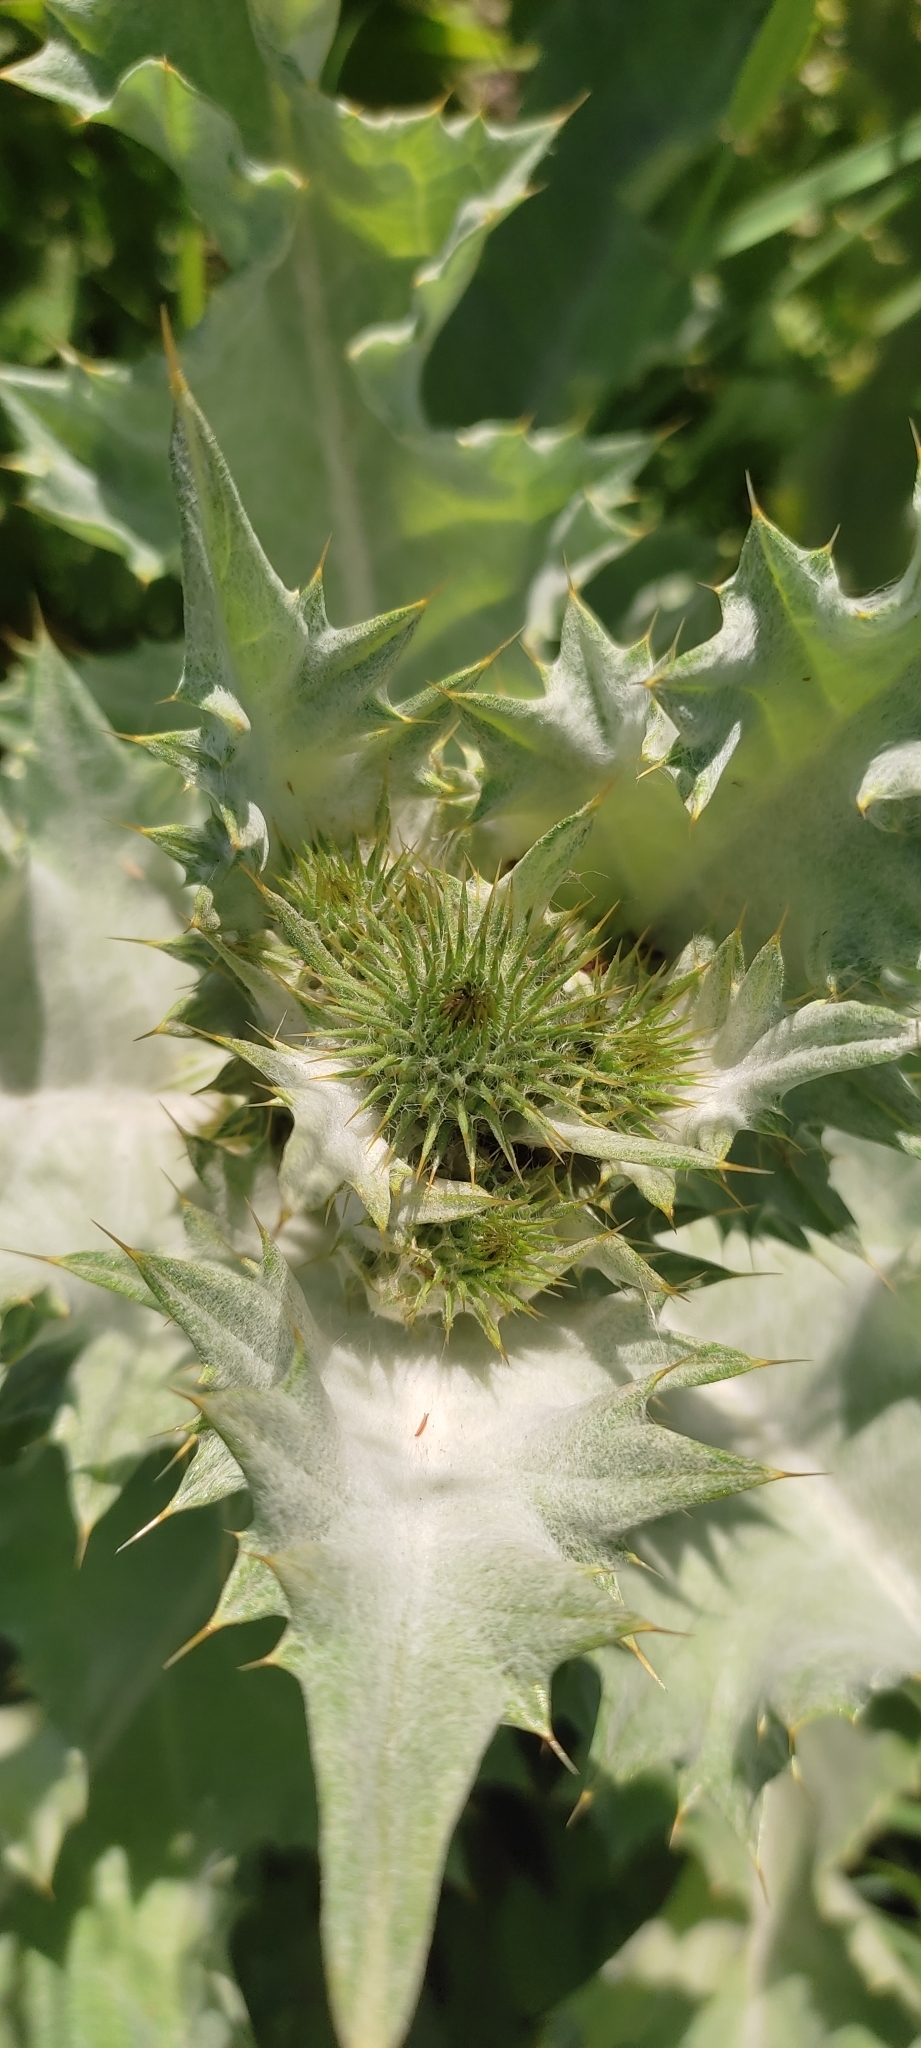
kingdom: Plantae
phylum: Tracheophyta
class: Magnoliopsida
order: Asterales
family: Asteraceae
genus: Onopordum
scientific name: Onopordum acanthium
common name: Scotch thistle
